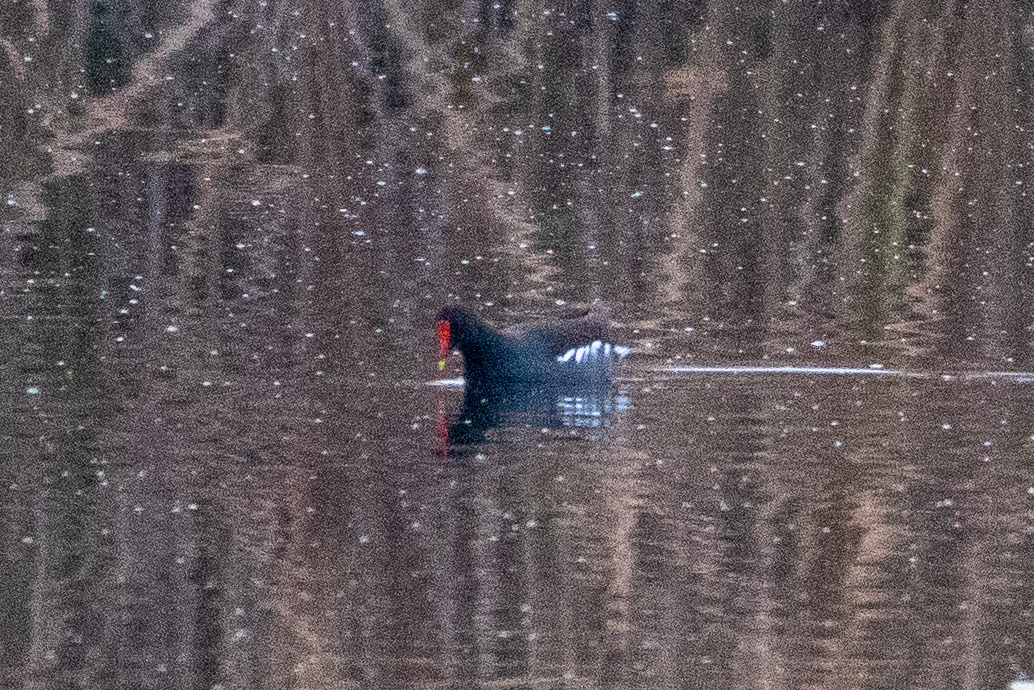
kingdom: Animalia
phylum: Chordata
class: Aves
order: Gruiformes
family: Rallidae
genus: Gallinula
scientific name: Gallinula chloropus
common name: Common moorhen
